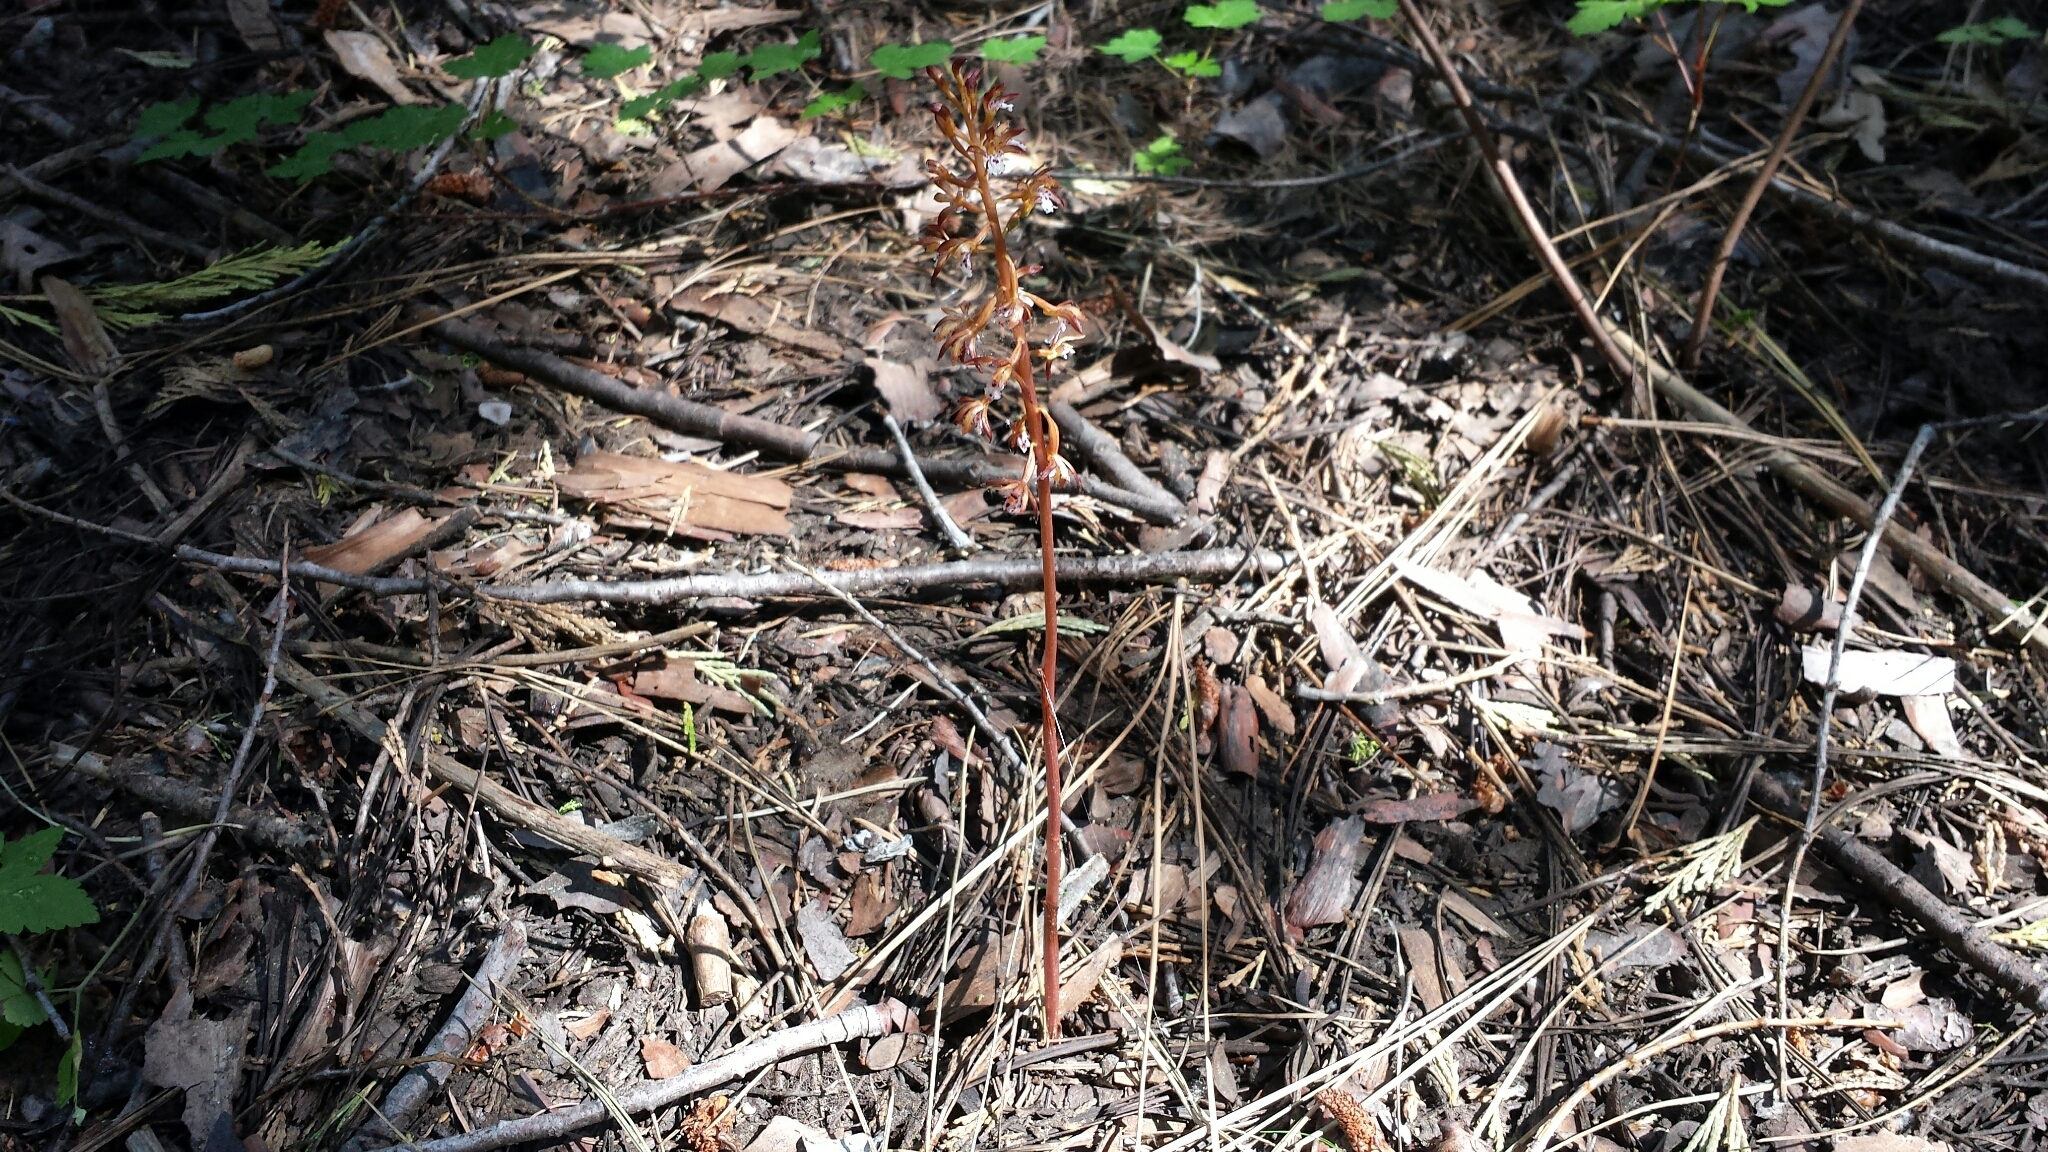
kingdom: Plantae
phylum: Tracheophyta
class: Liliopsida
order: Asparagales
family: Orchidaceae
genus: Corallorhiza
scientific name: Corallorhiza maculata
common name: Spotted coralroot
